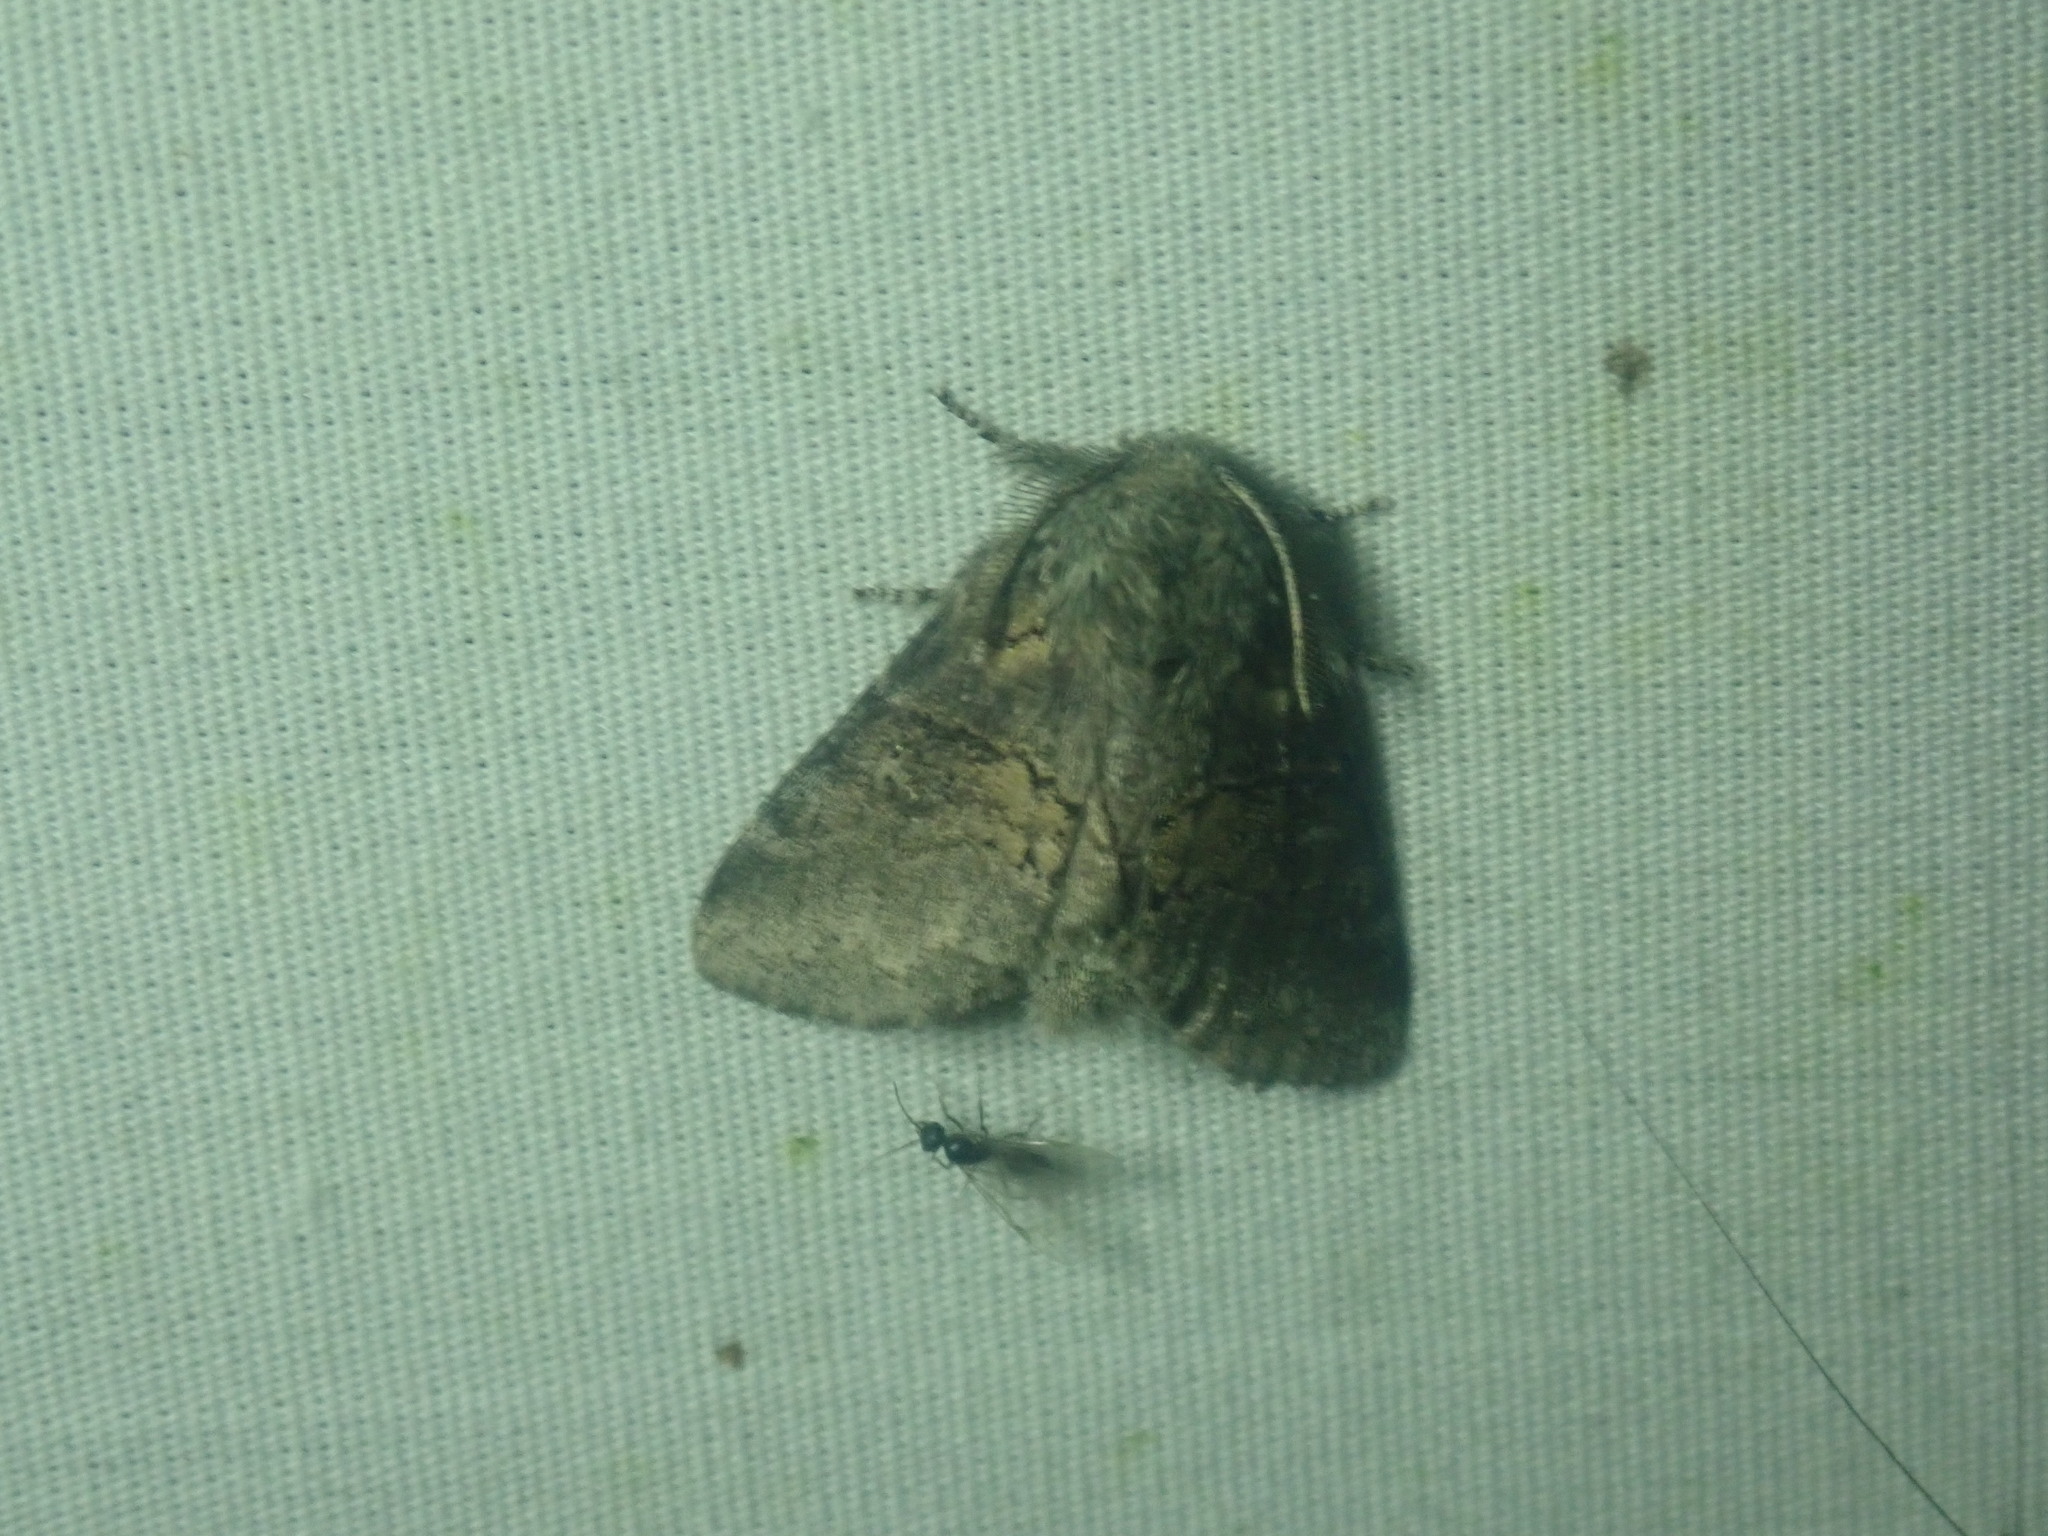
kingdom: Animalia
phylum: Arthropoda
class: Insecta
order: Lepidoptera
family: Notodontidae
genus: Gluphisia
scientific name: Gluphisia septentrionis
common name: Common gluphisia
